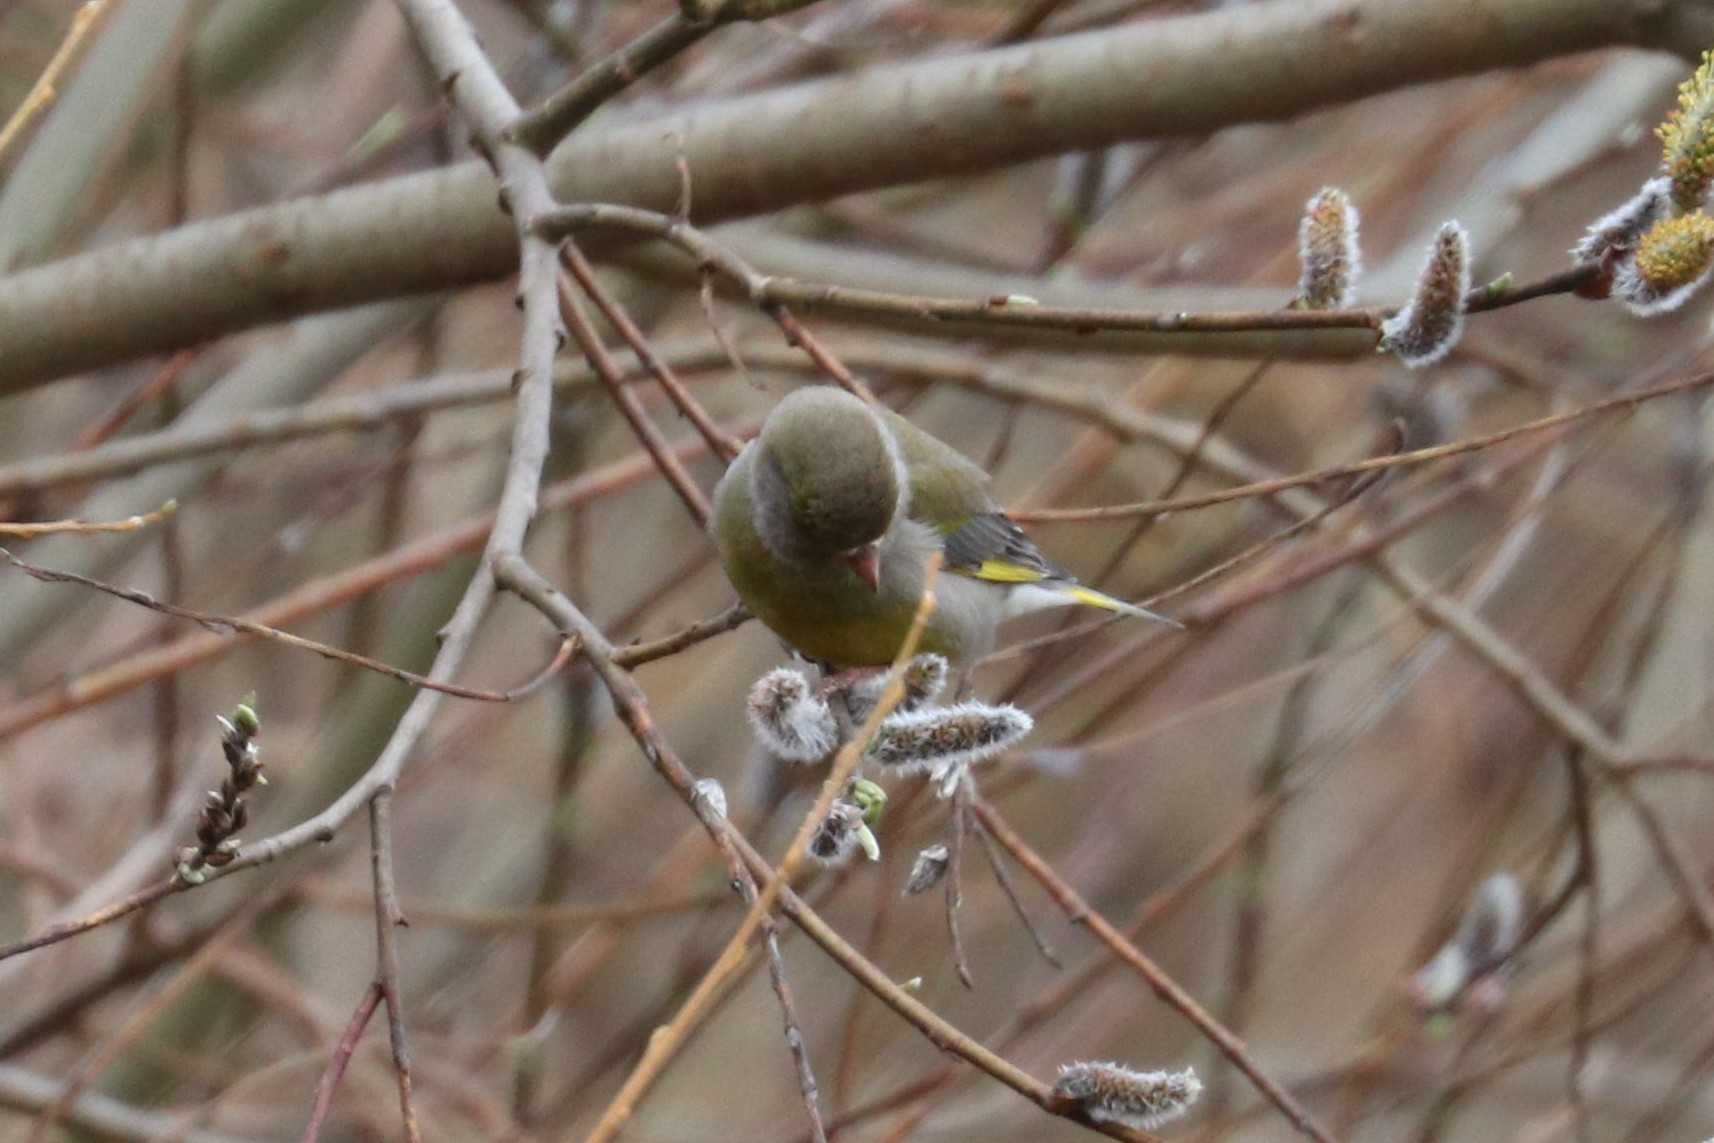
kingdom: Plantae
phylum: Tracheophyta
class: Liliopsida
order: Poales
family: Poaceae
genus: Chloris
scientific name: Chloris chloris
